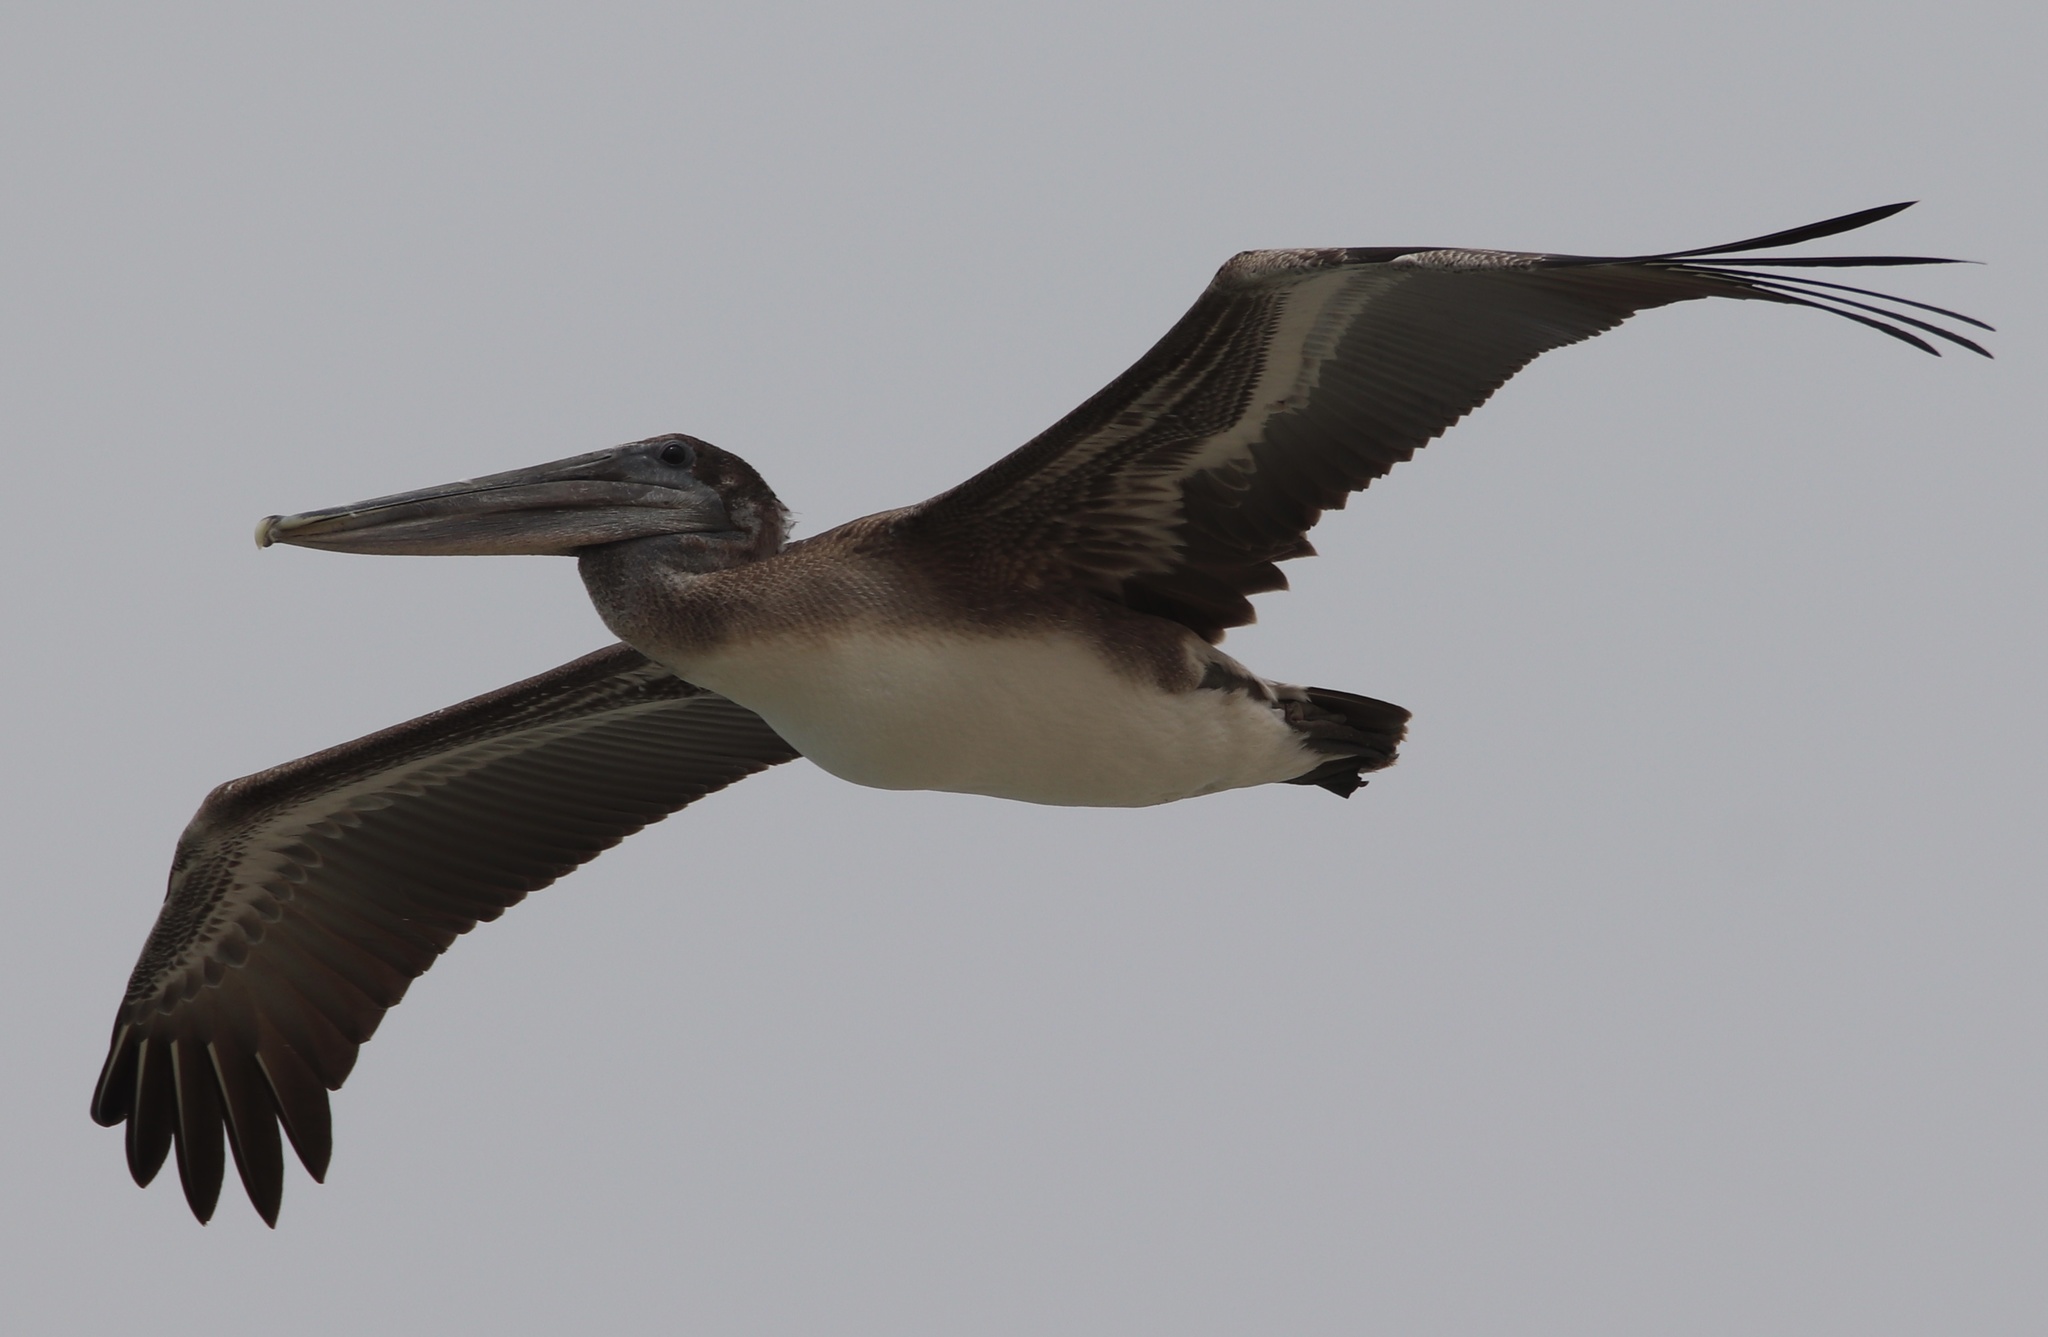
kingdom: Animalia
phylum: Chordata
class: Aves
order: Pelecaniformes
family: Pelecanidae
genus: Pelecanus
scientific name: Pelecanus occidentalis
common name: Brown pelican
